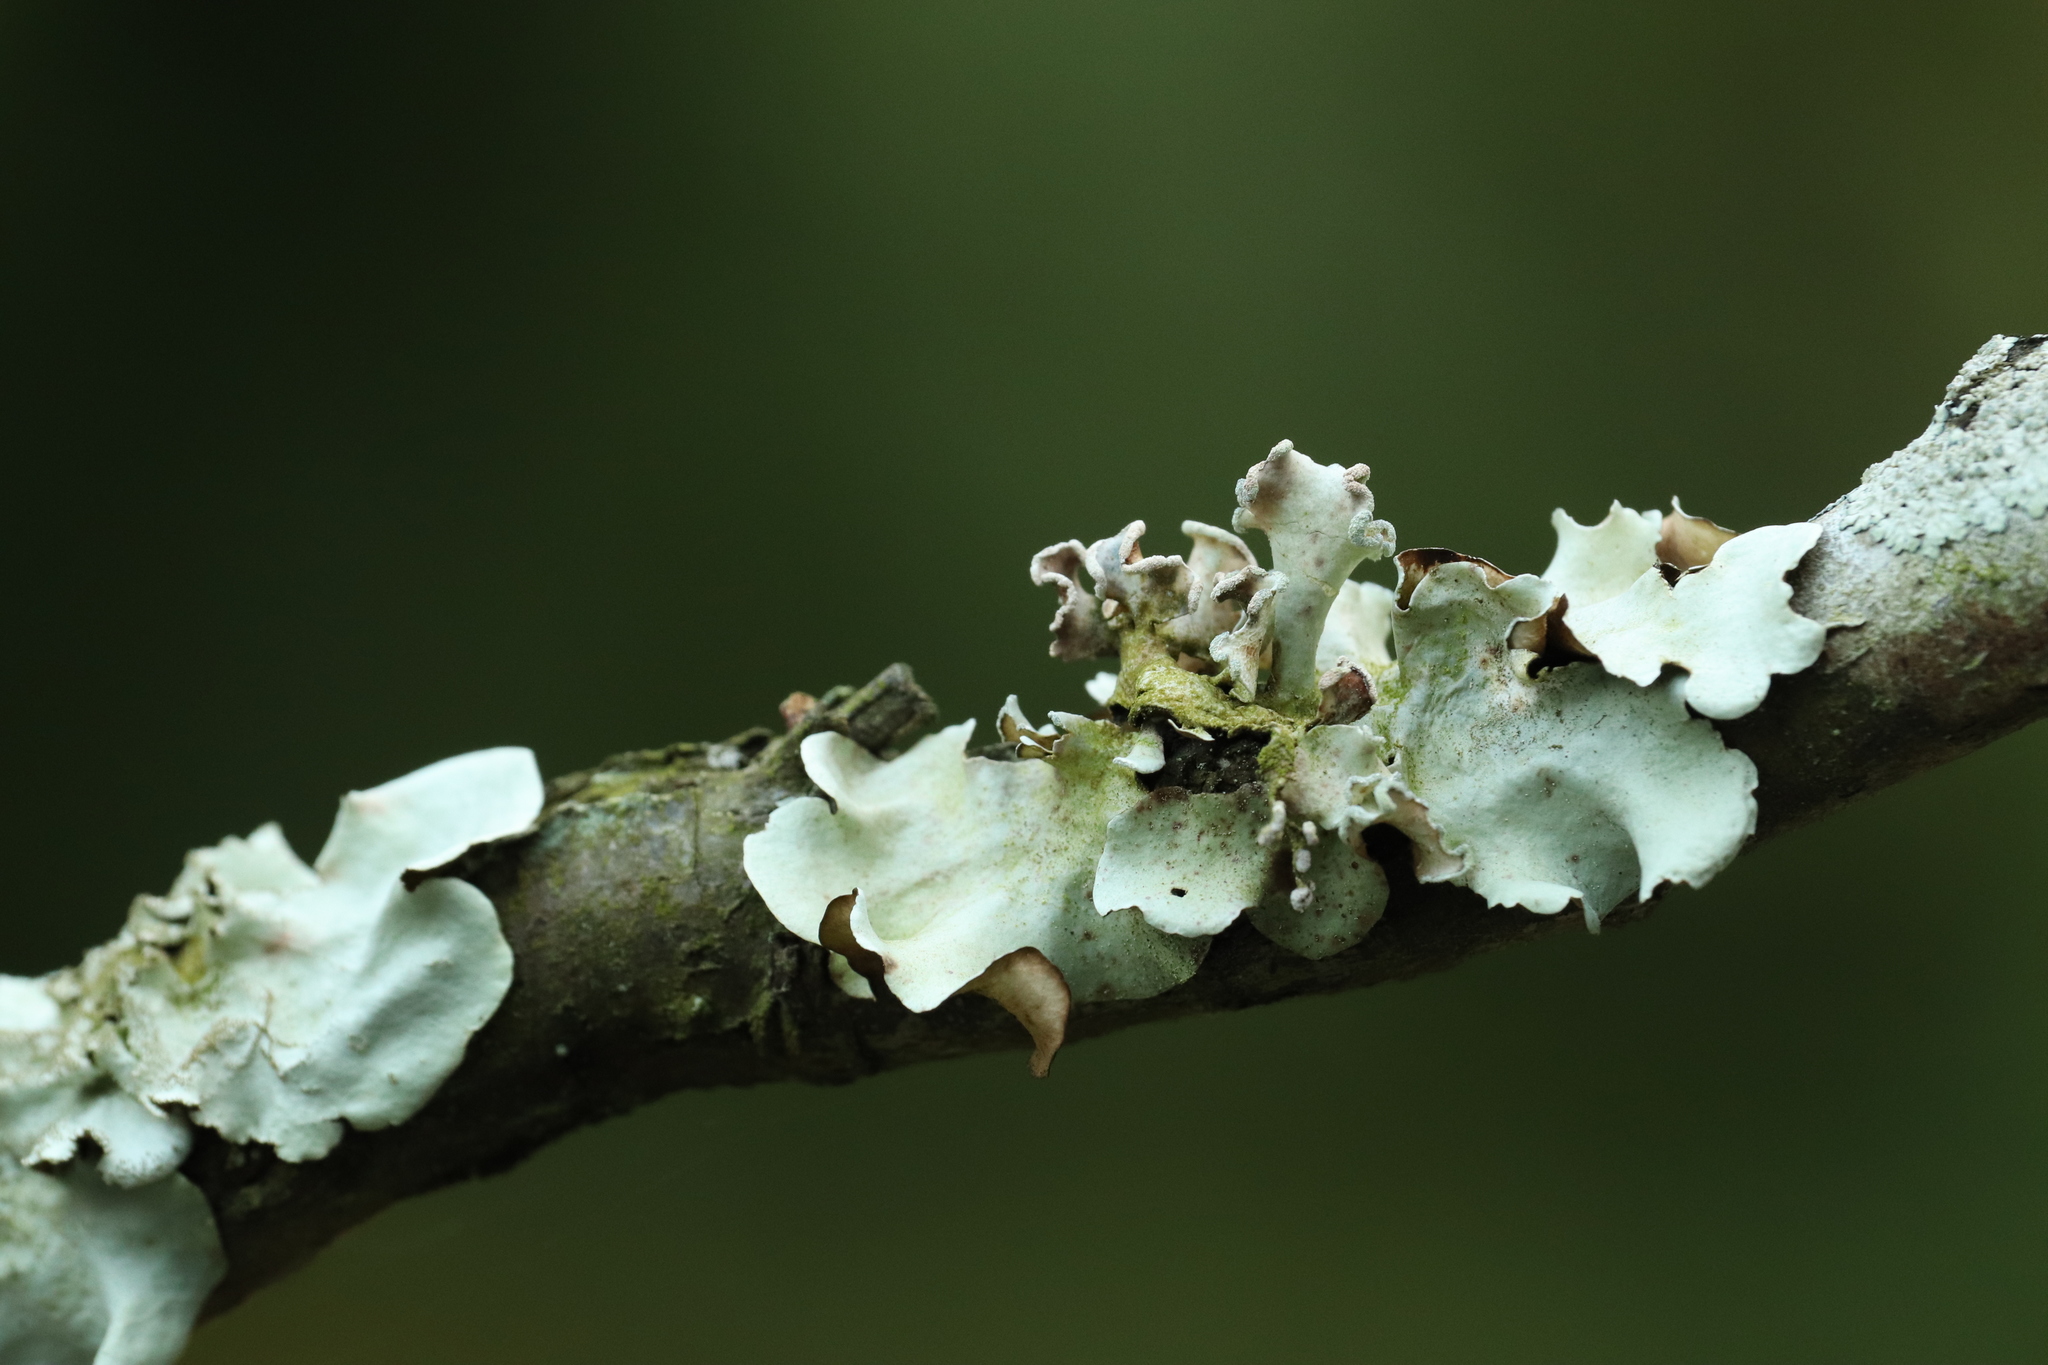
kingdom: Fungi
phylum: Ascomycota
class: Lecanoromycetes
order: Lecanorales
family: Parmeliaceae
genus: Parmotrema
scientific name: Parmotrema austrosinense
